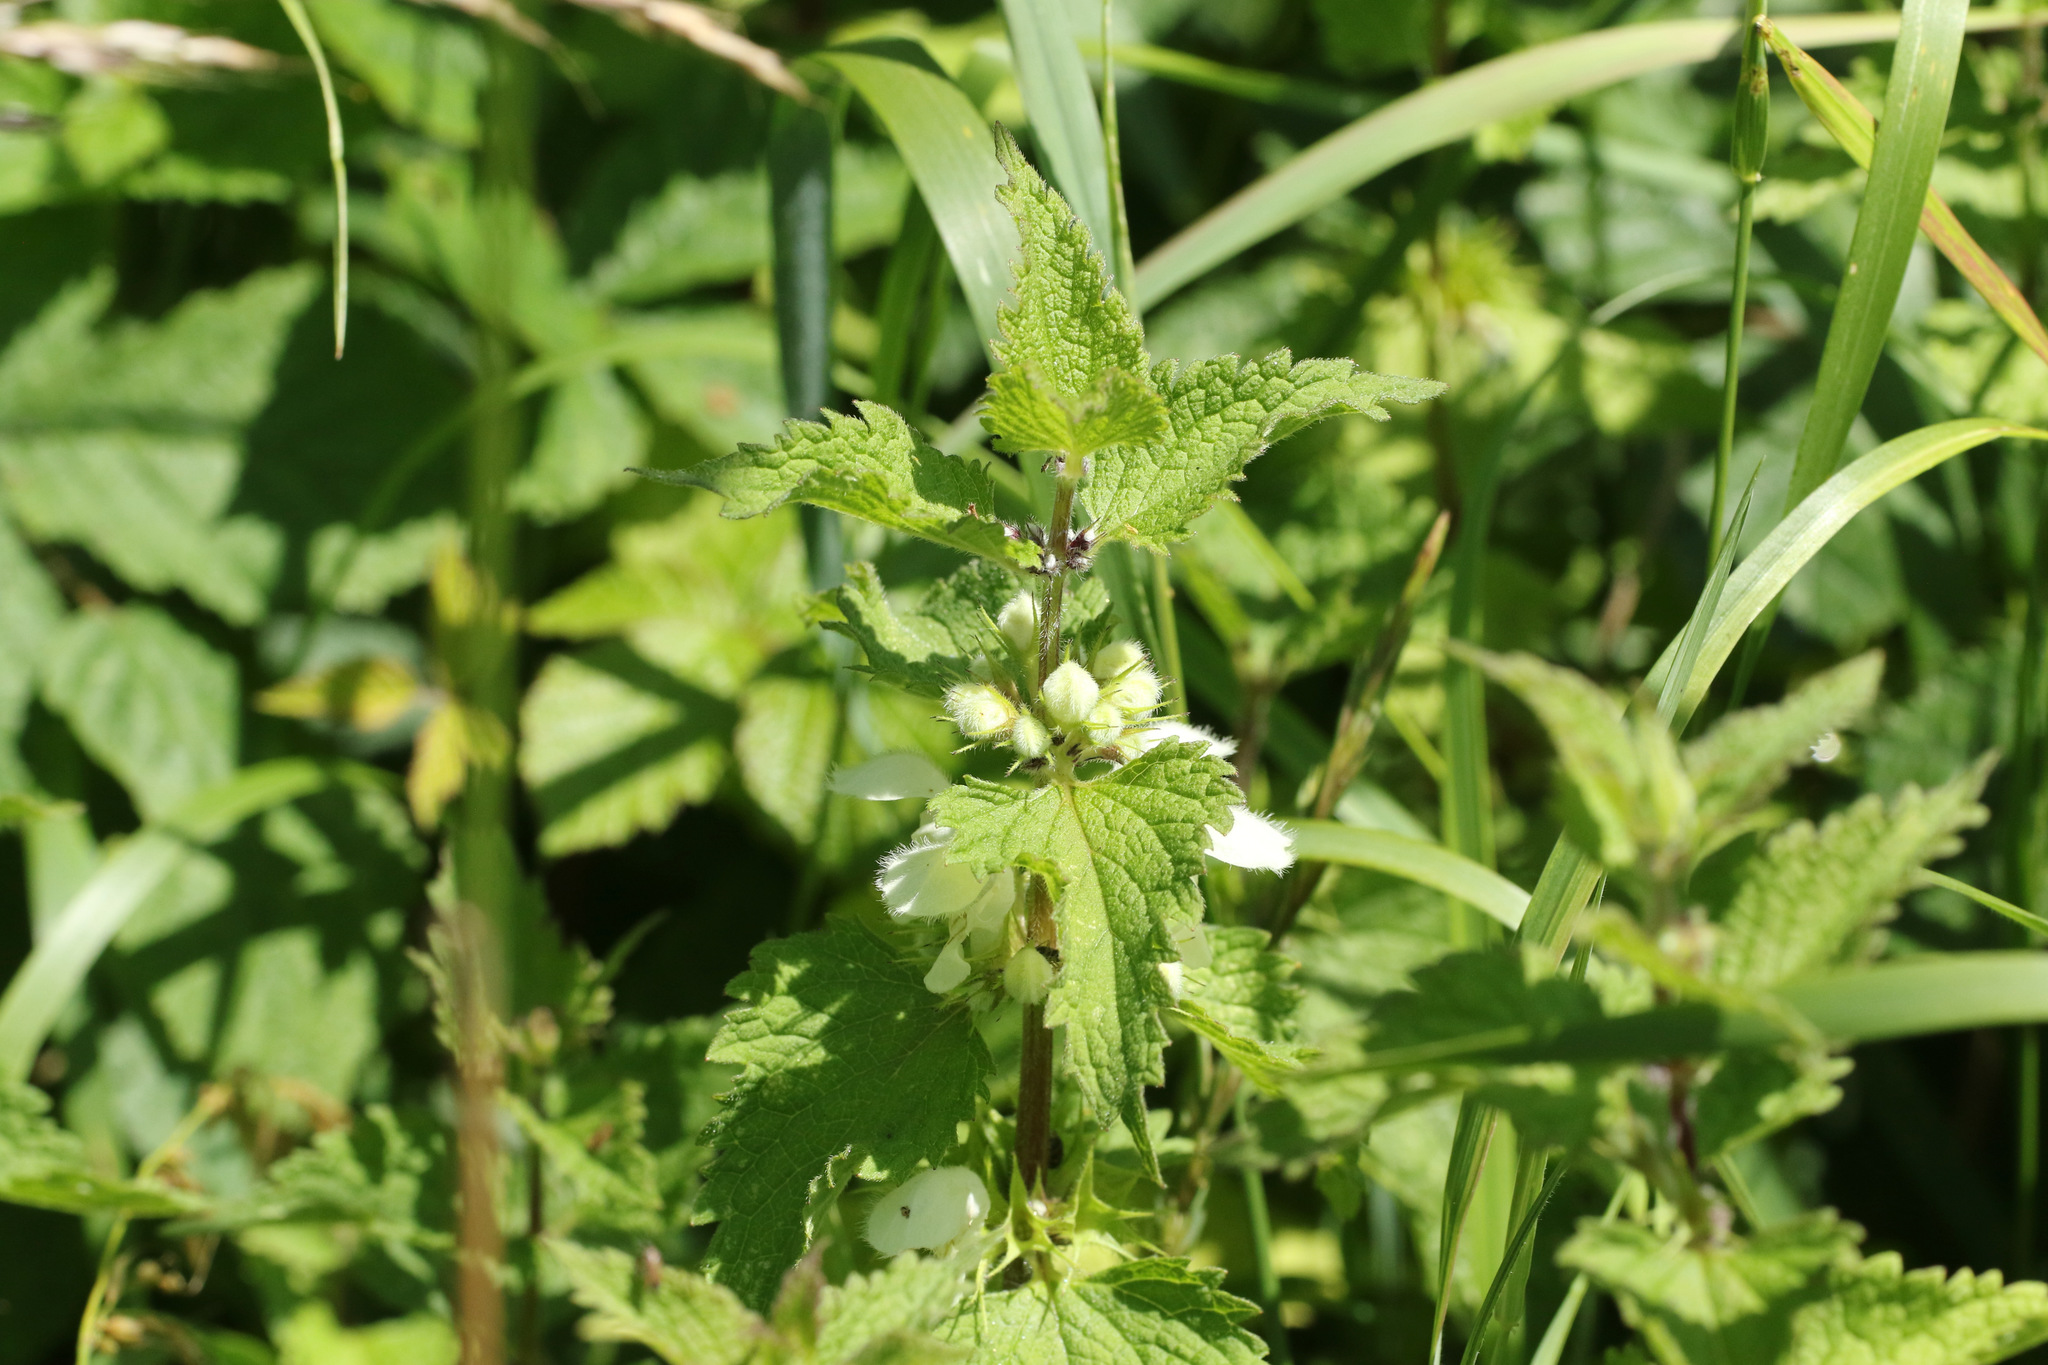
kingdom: Plantae
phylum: Tracheophyta
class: Magnoliopsida
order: Lamiales
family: Lamiaceae
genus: Lamium
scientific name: Lamium album
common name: White dead-nettle
